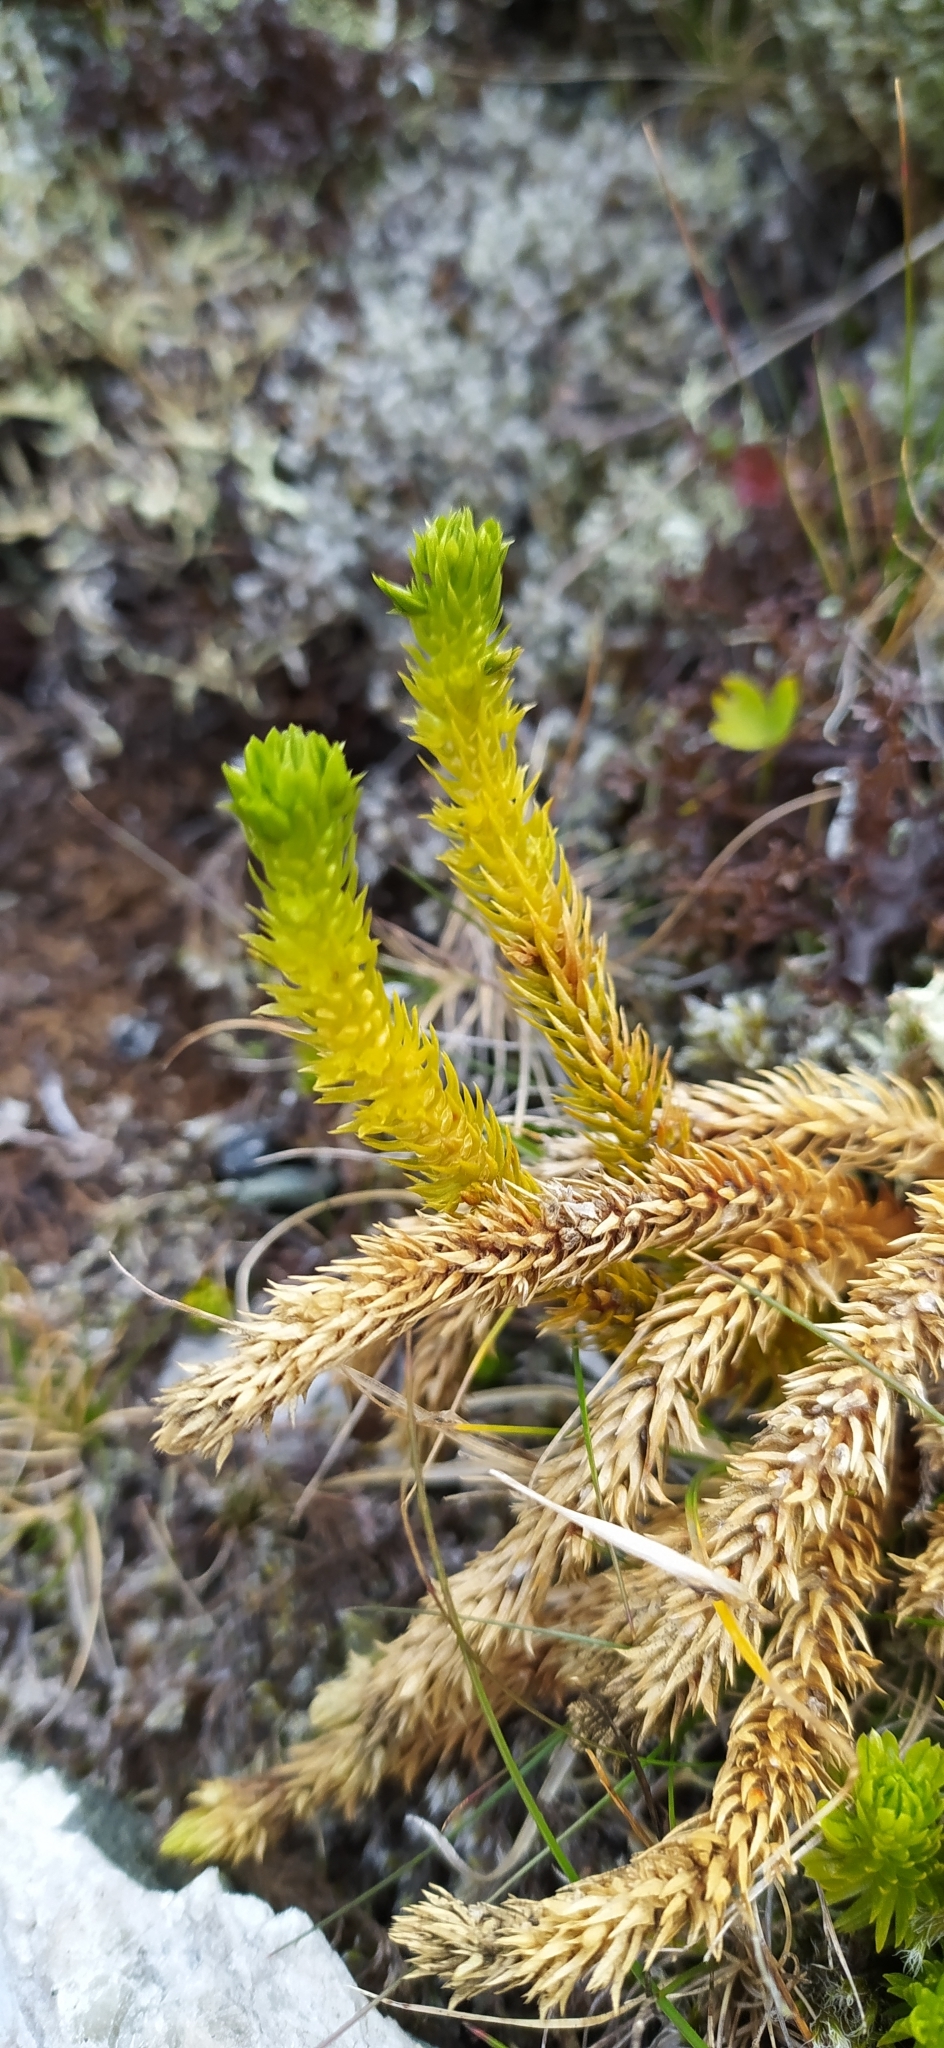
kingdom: Plantae
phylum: Tracheophyta
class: Lycopodiopsida
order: Lycopodiales
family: Lycopodiaceae
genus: Huperzia
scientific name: Huperzia selago
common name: Northern firmoss
